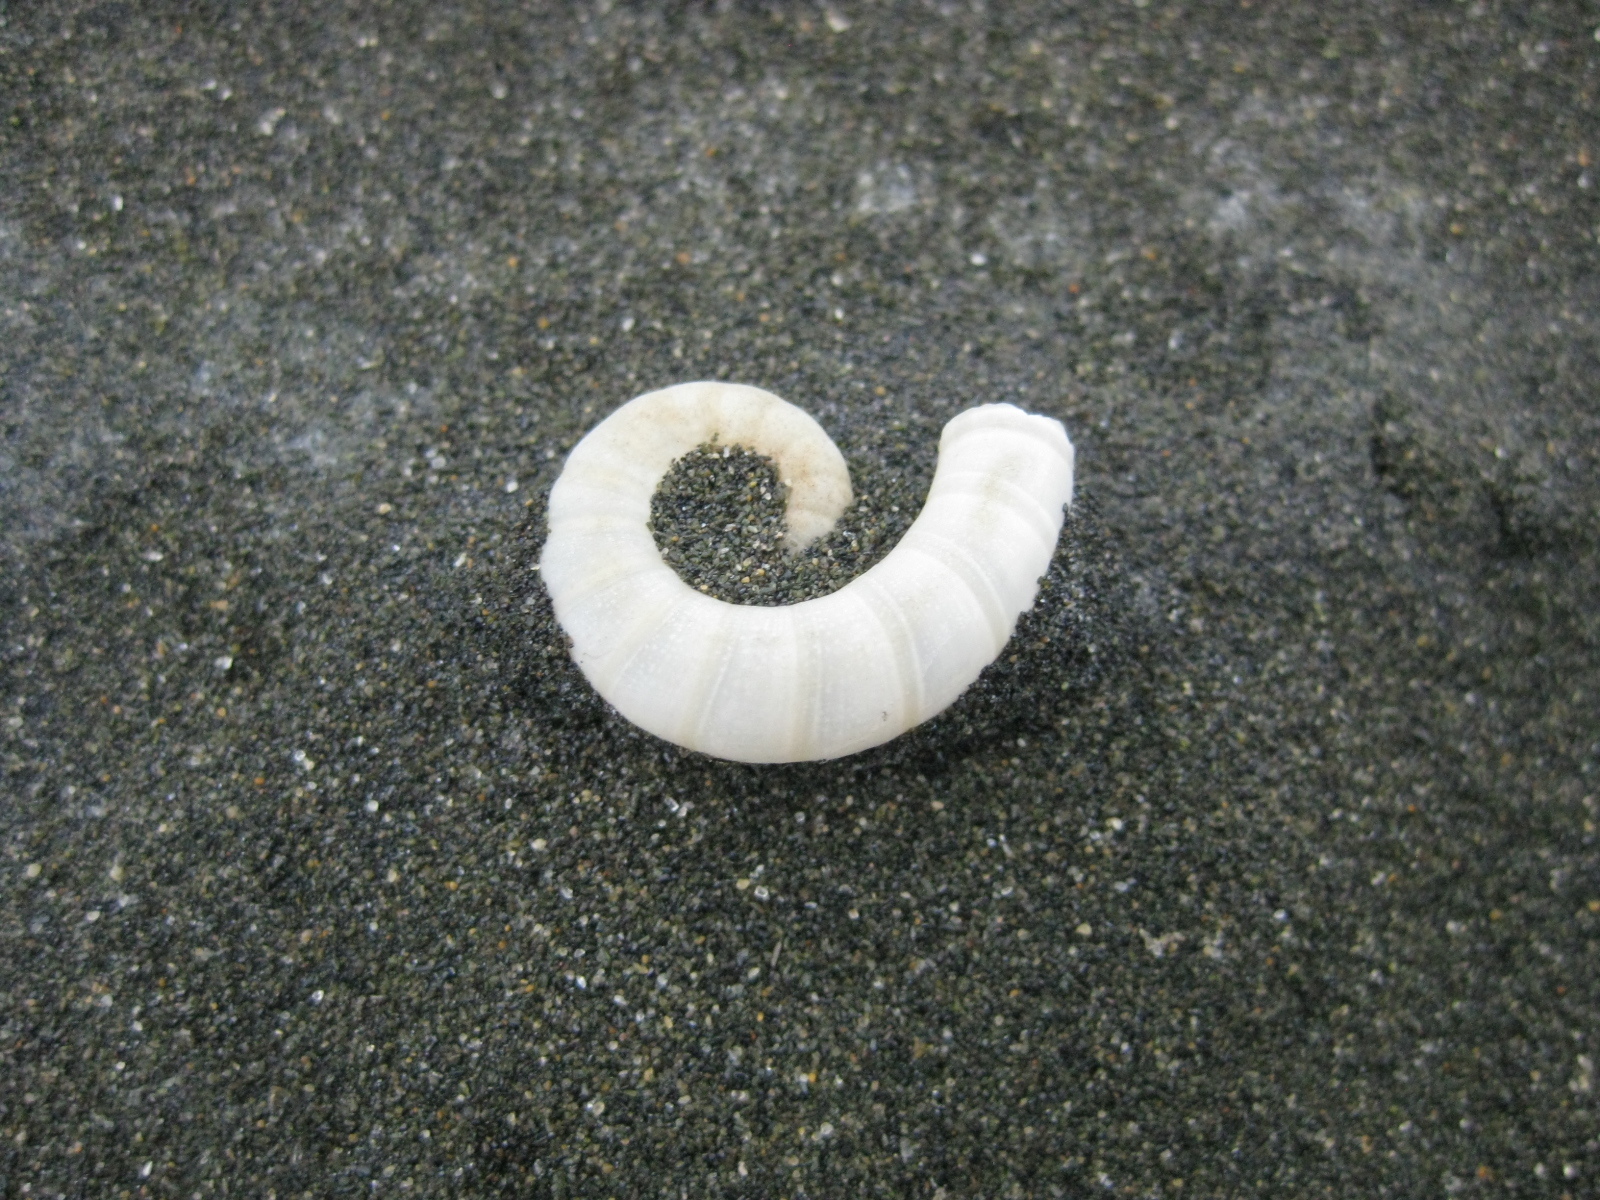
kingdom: Animalia
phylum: Mollusca
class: Cephalopoda
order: Spirulida
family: Spirulidae
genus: Spirula
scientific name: Spirula spirula
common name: Ram's horn squid
